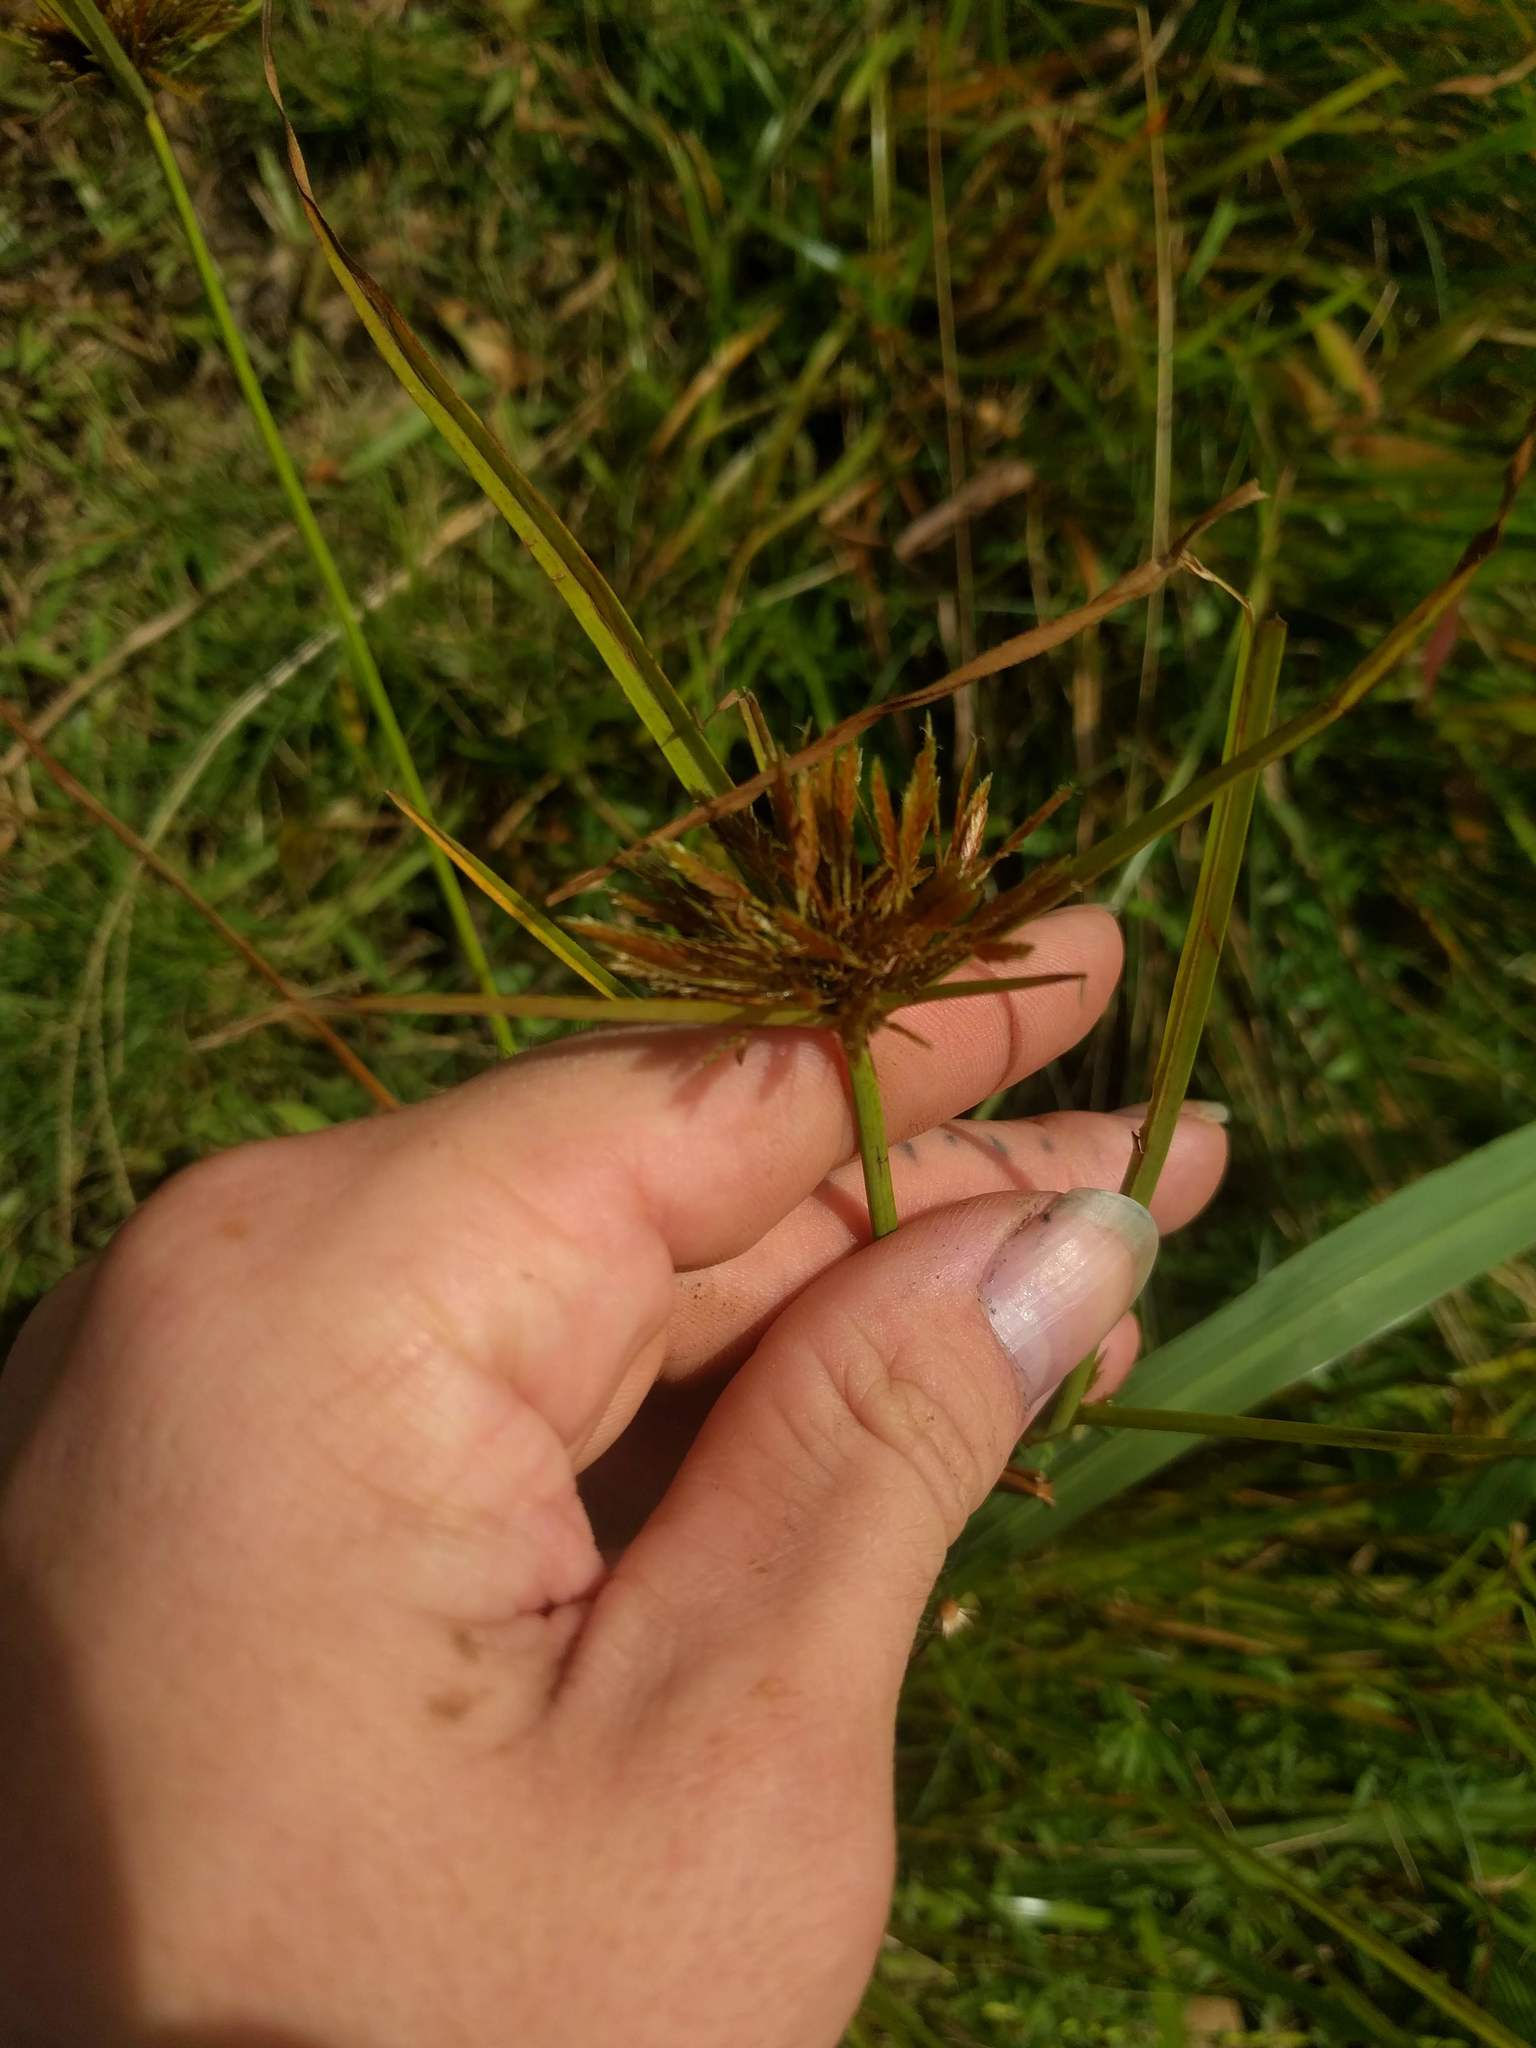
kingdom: Plantae
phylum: Tracheophyta
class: Liliopsida
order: Poales
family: Cyperaceae
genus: Cyperus
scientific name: Cyperus polystachyos
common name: Bunchy flat sedge
